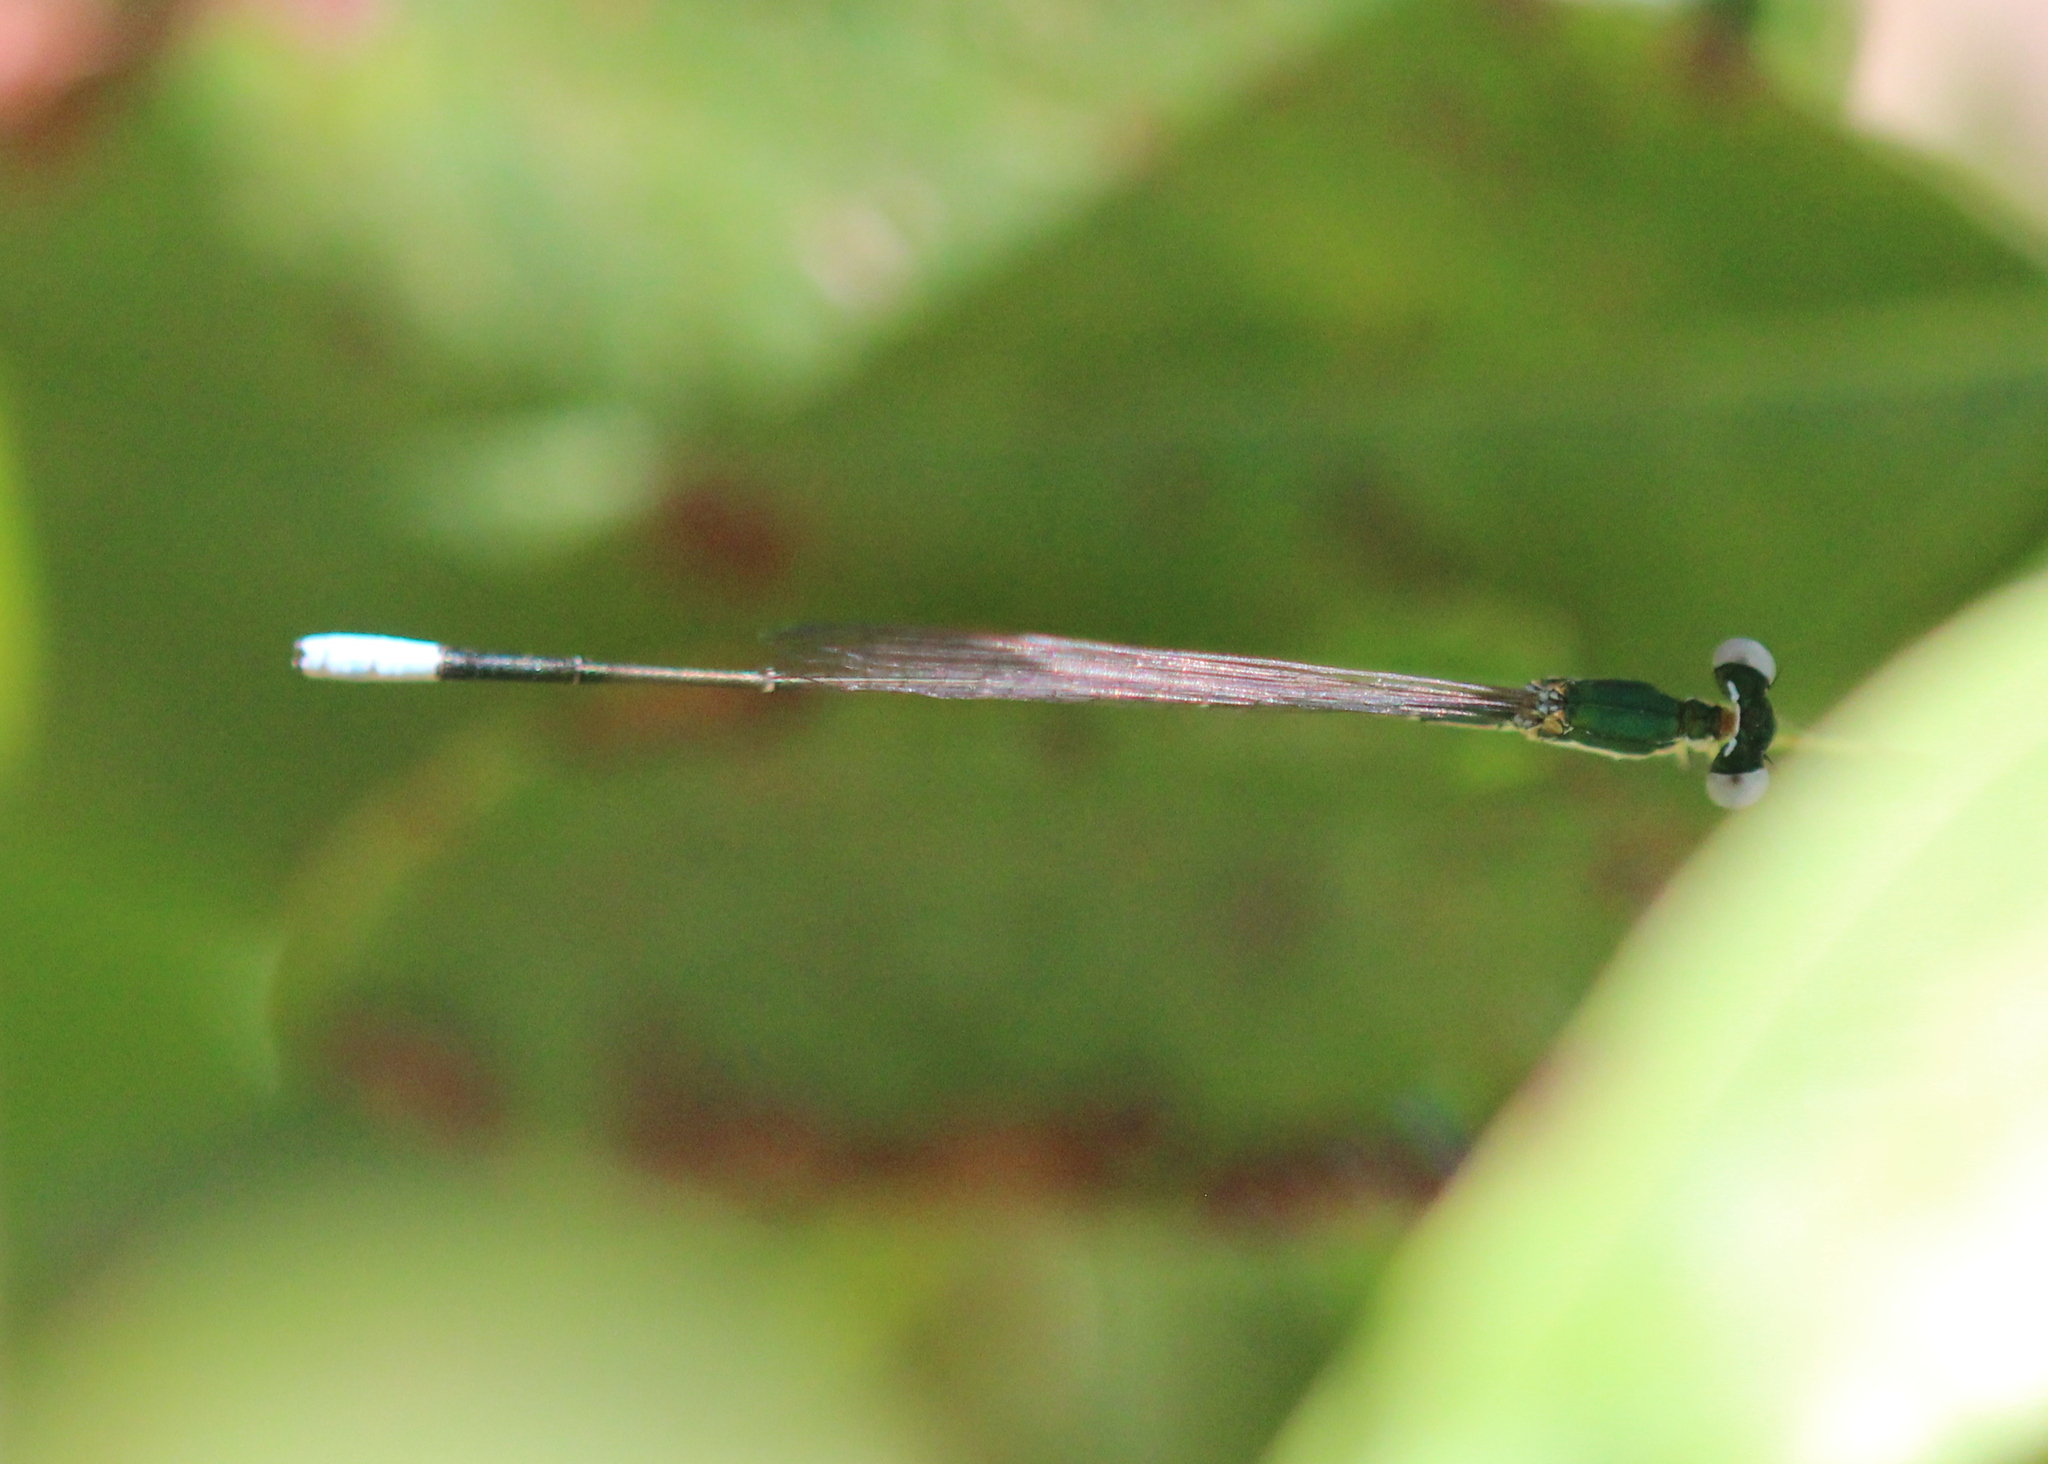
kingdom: Animalia
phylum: Arthropoda
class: Insecta
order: Odonata
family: Coenagrionidae
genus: Nehalennia
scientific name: Nehalennia gracilis
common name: Sphagnum sprite
